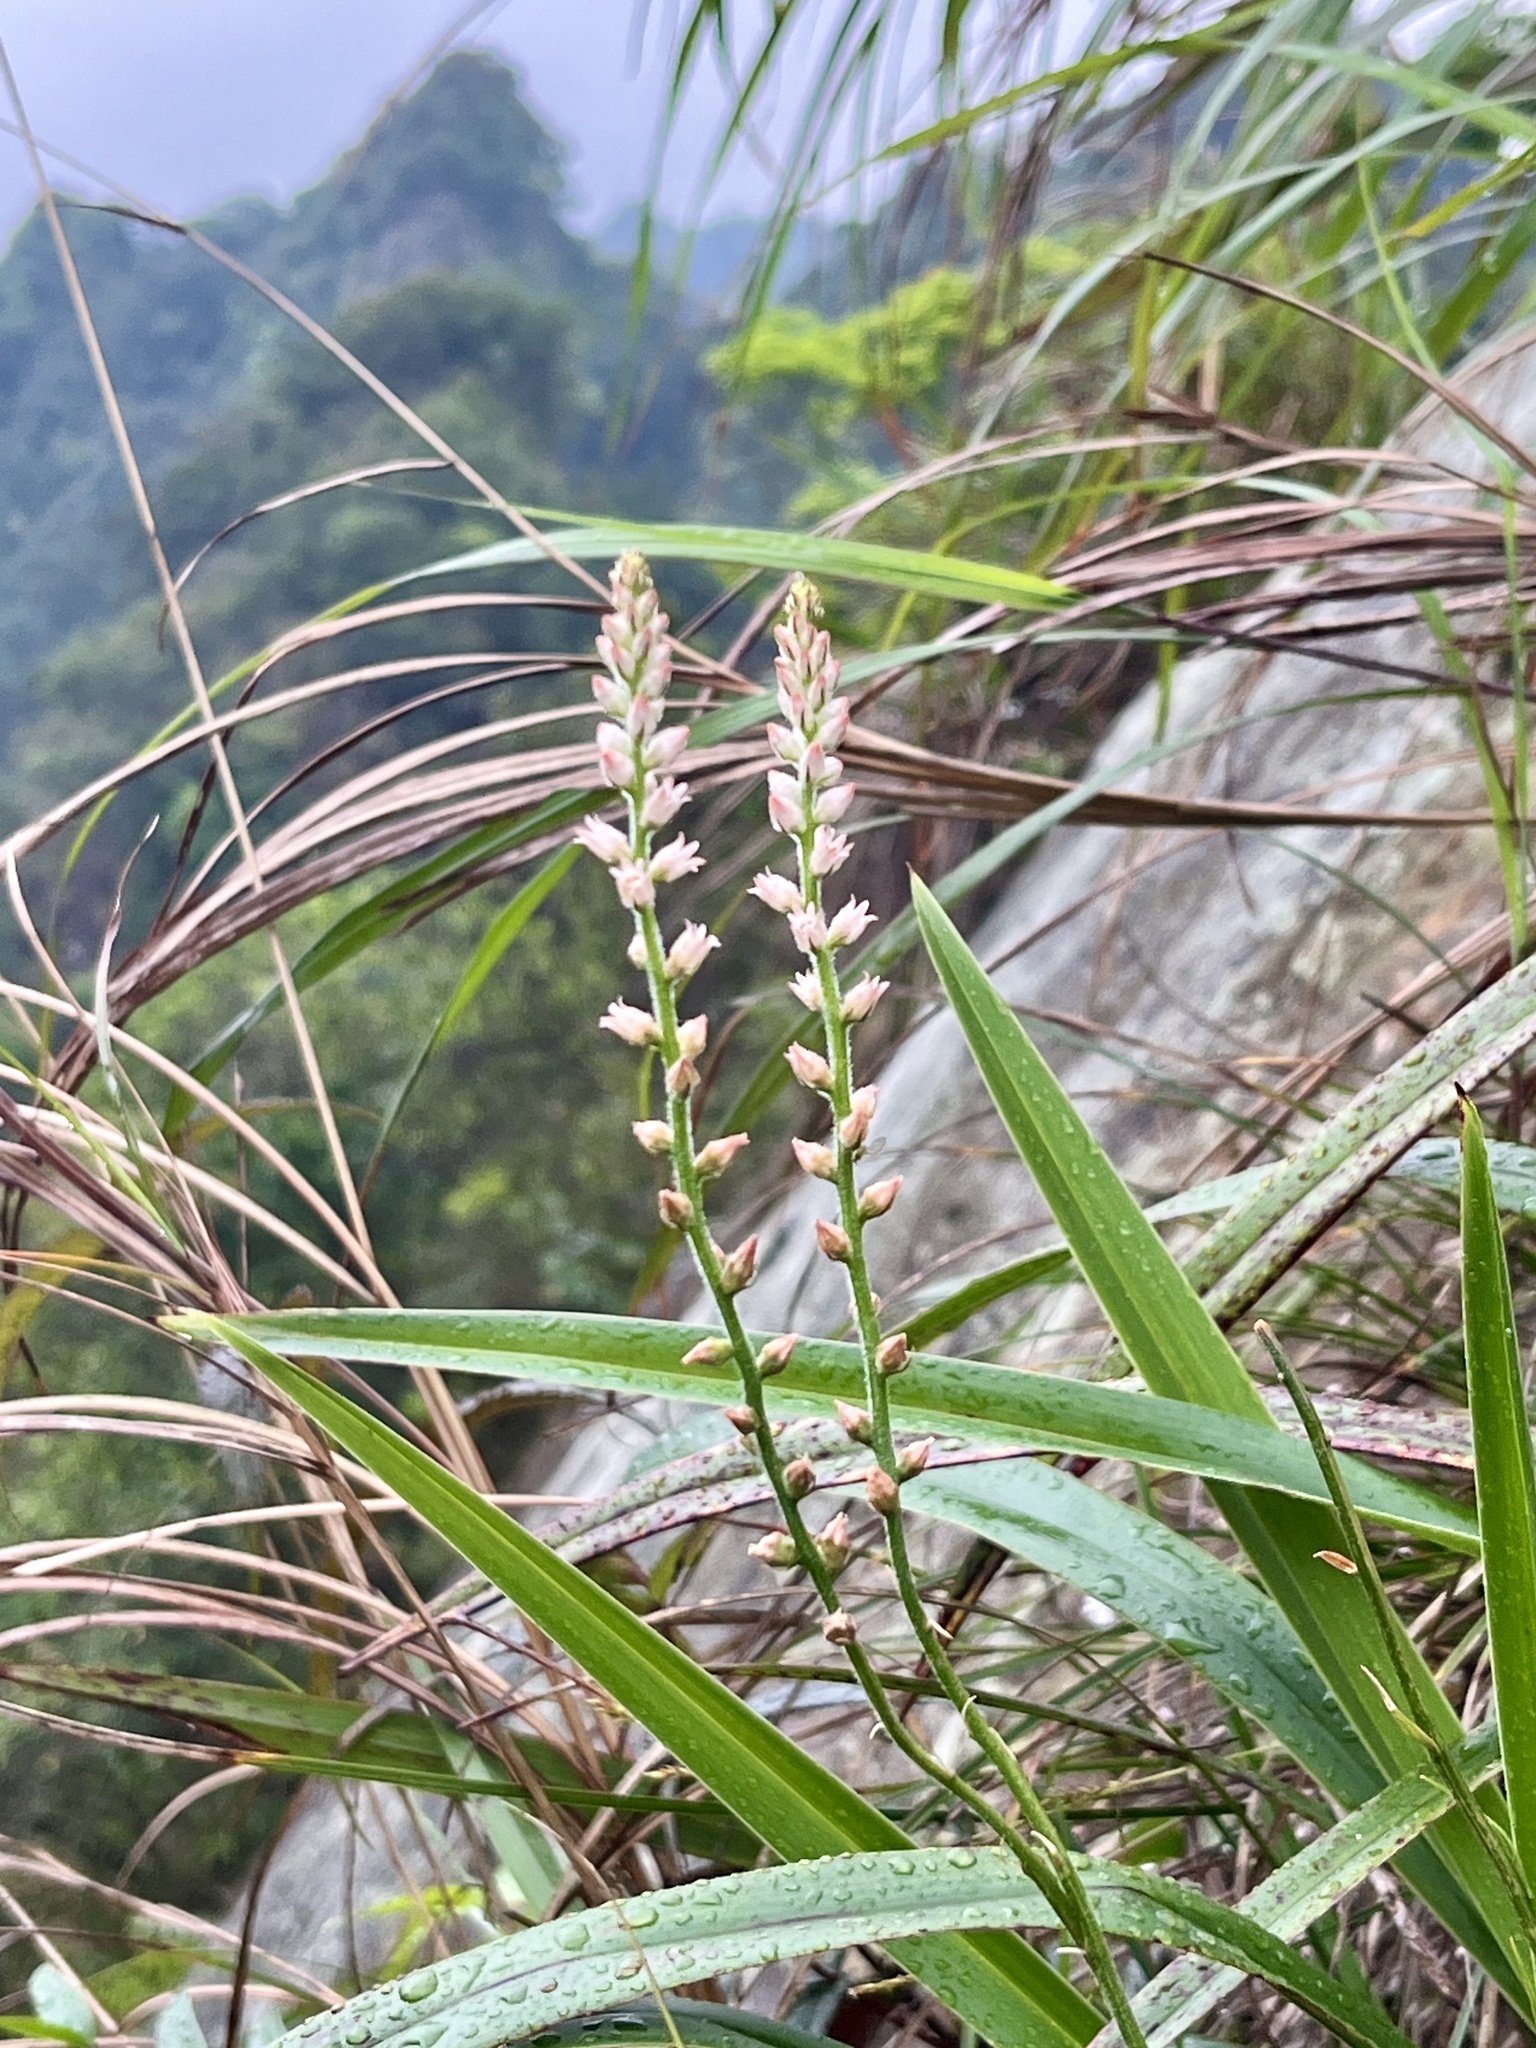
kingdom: Plantae
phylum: Tracheophyta
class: Liliopsida
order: Dioscoreales
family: Nartheciaceae
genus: Aletris
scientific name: Aletris spicata
